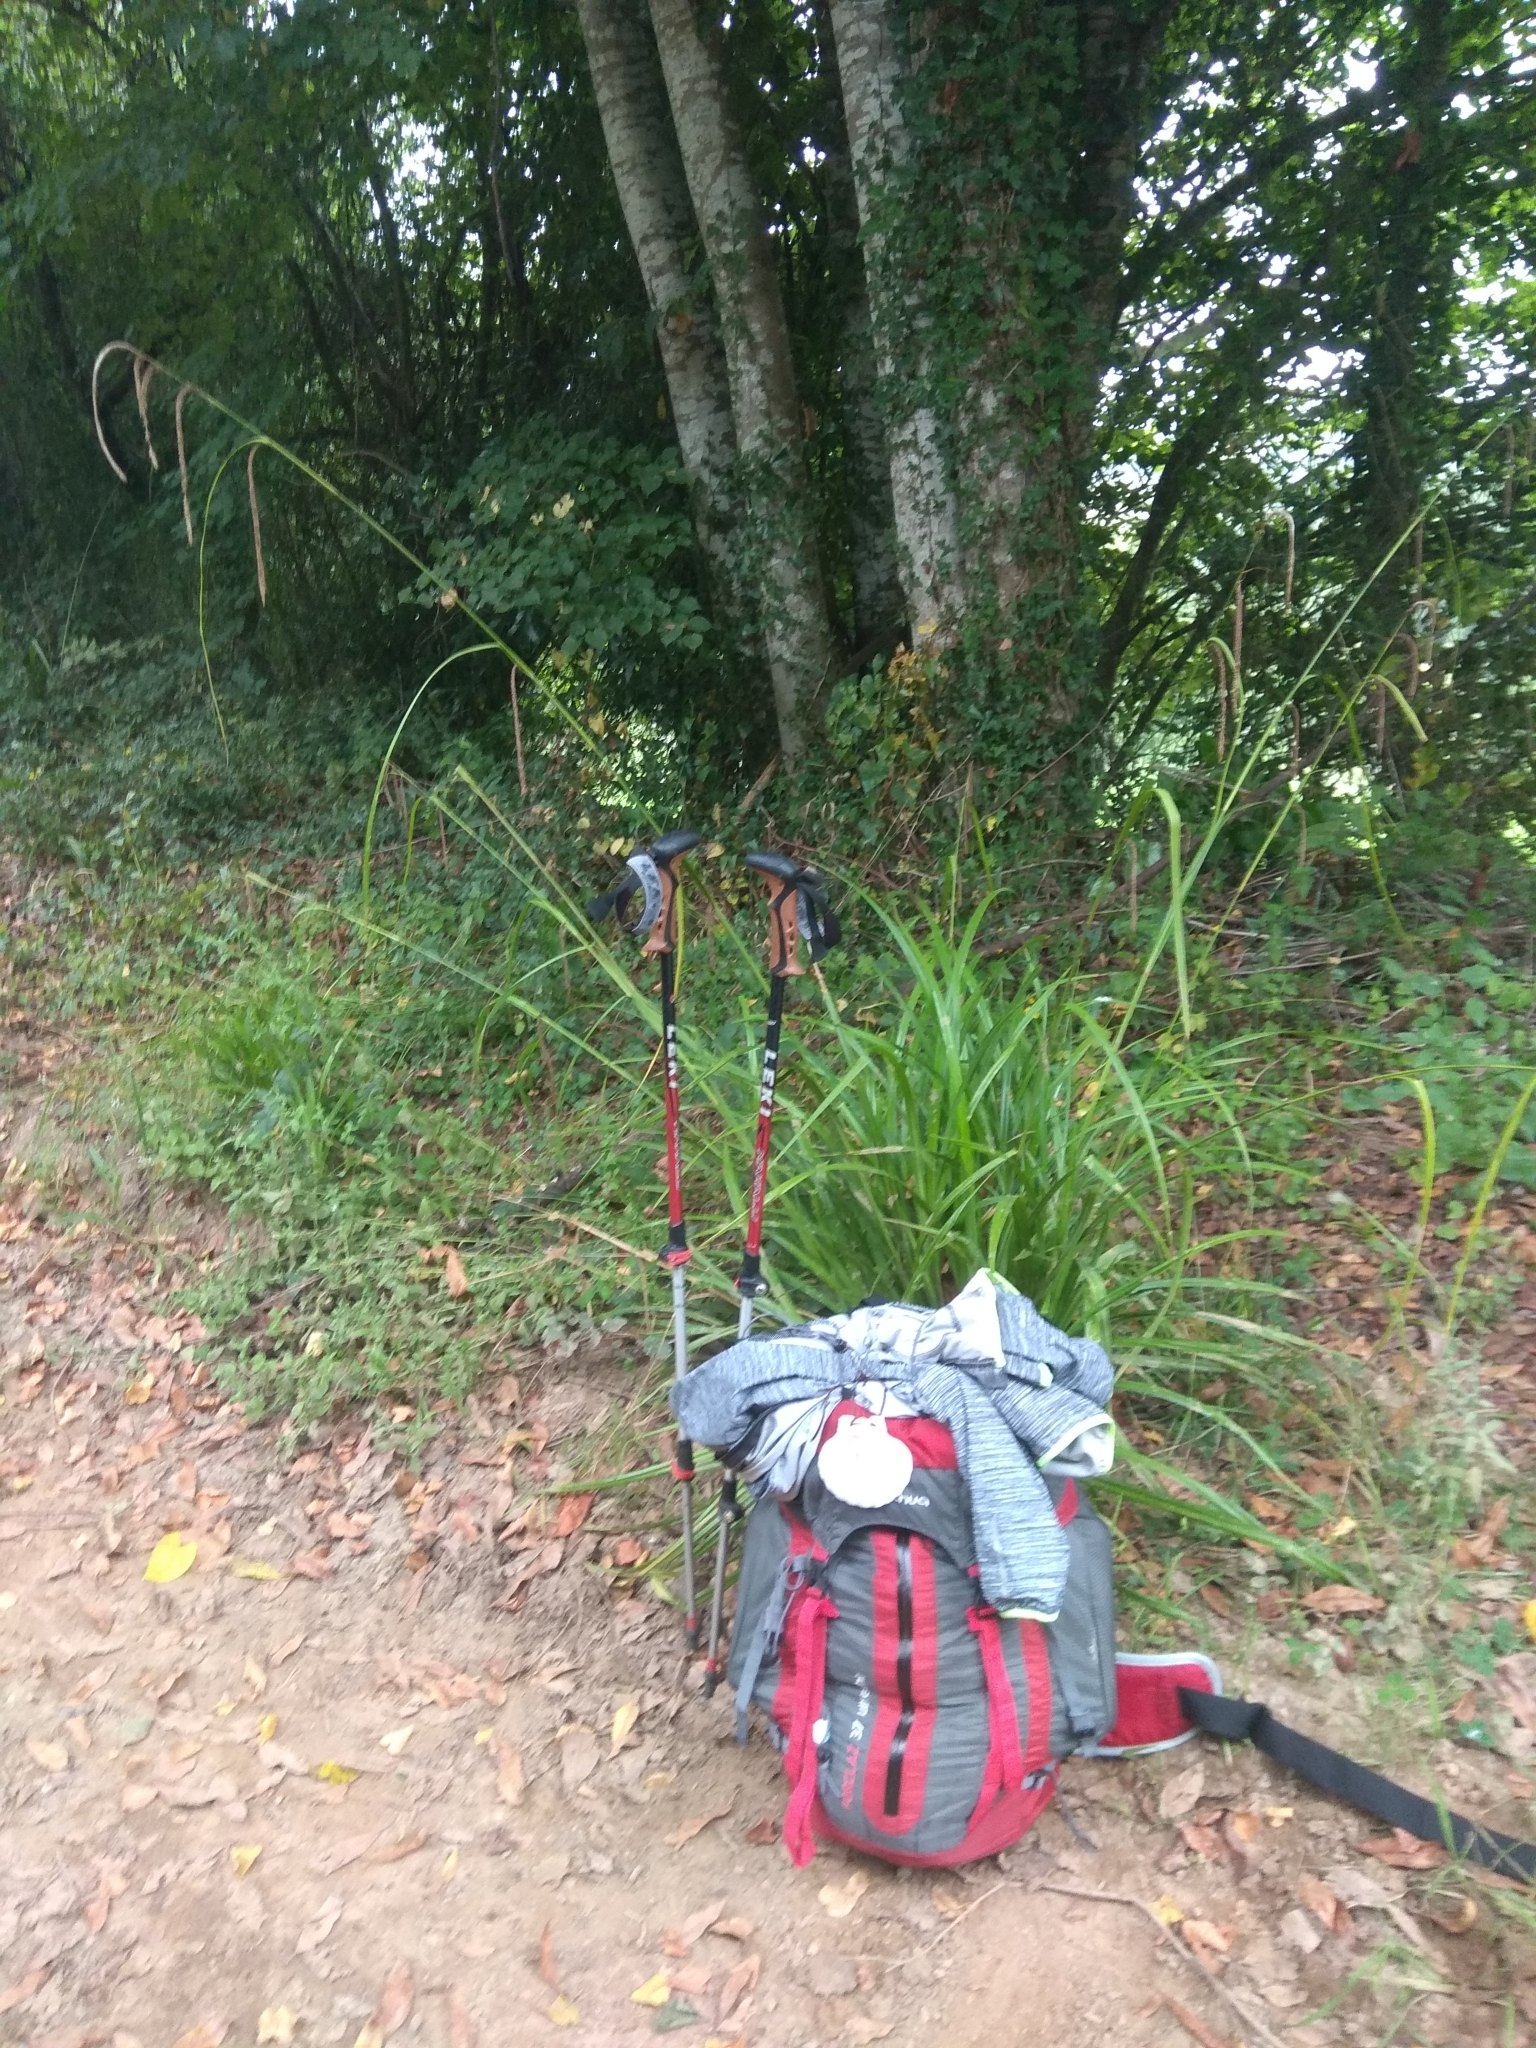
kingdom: Plantae
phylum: Tracheophyta
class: Liliopsida
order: Poales
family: Cyperaceae
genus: Carex
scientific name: Carex pendula
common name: Pendulous sedge
